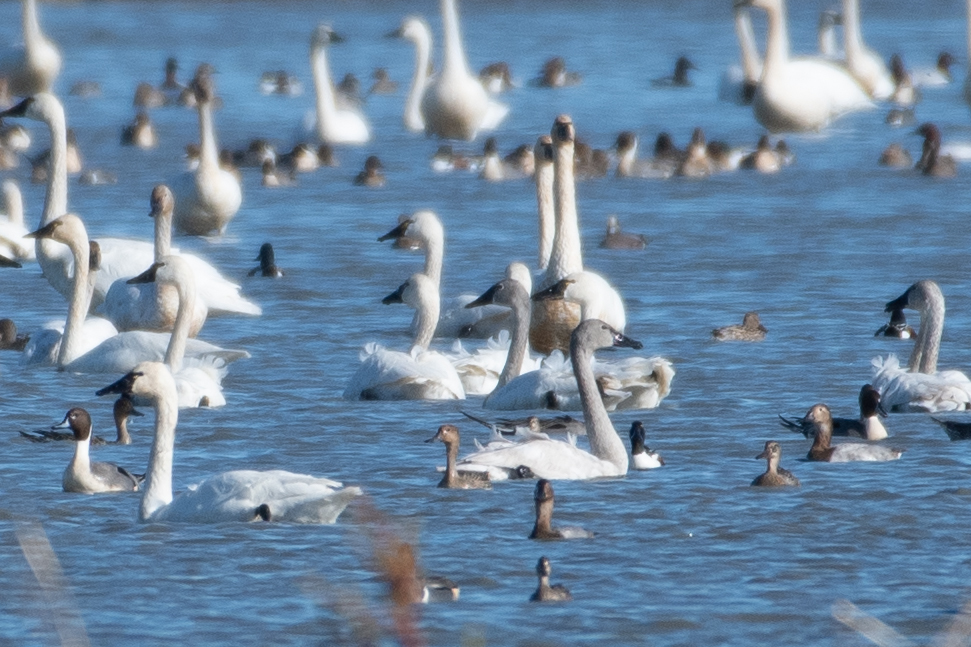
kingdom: Animalia
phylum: Chordata
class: Aves
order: Anseriformes
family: Anatidae
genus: Cygnus
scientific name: Cygnus columbianus
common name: Tundra swan
